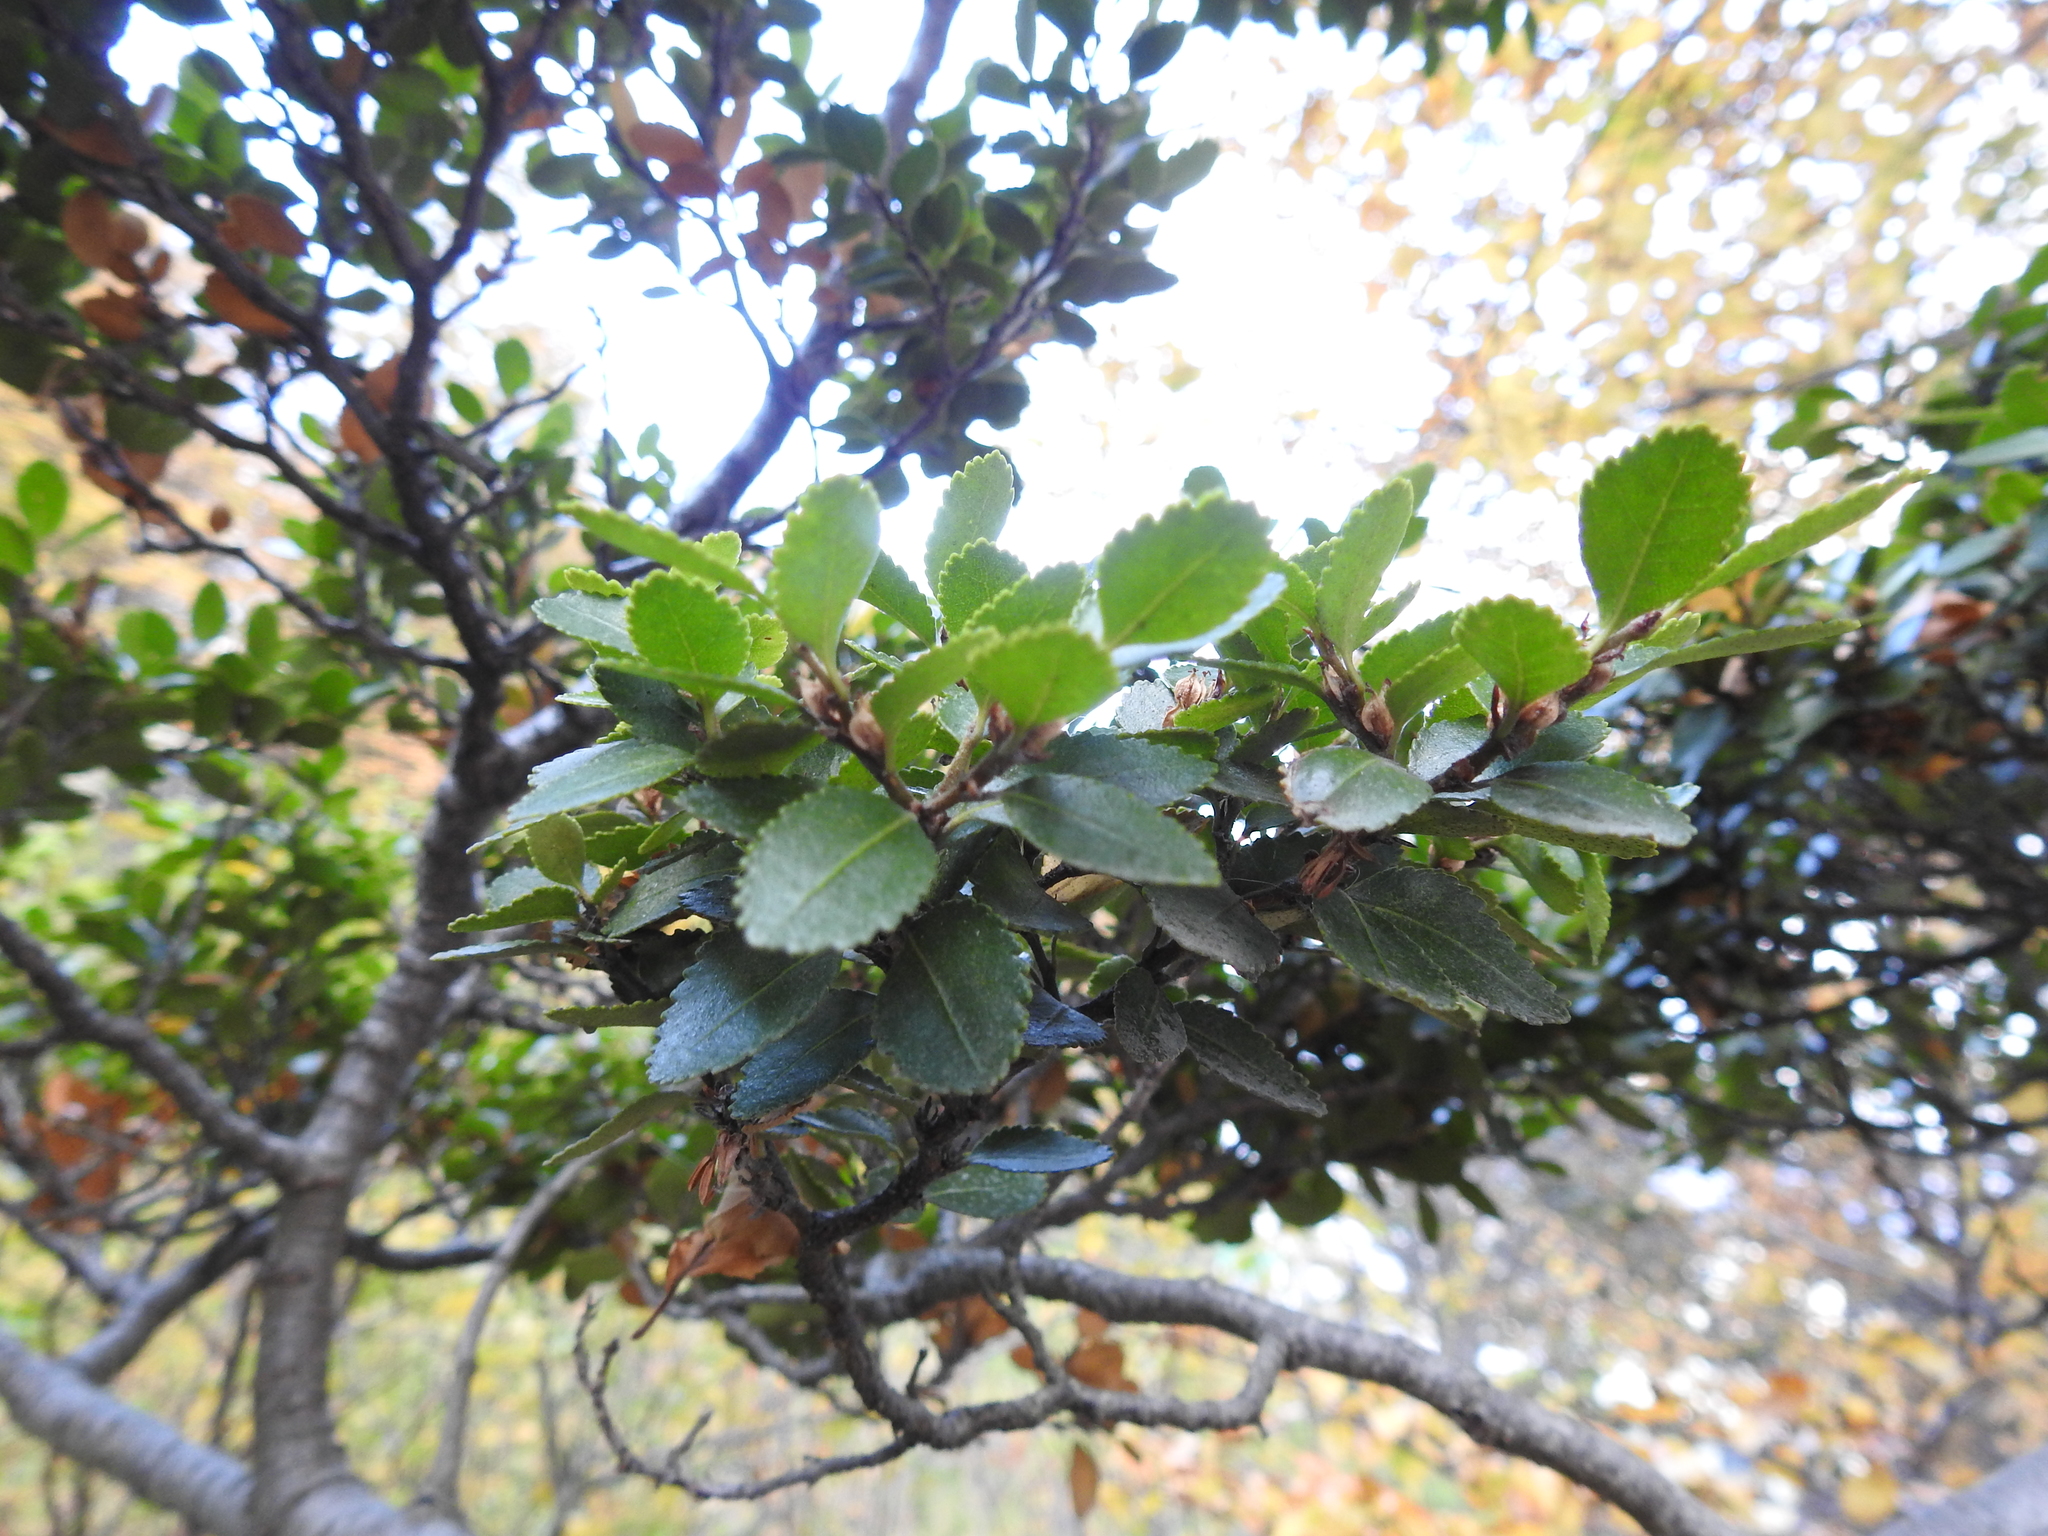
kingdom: Plantae
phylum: Tracheophyta
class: Magnoliopsida
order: Fagales
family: Nothofagaceae
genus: Nothofagus
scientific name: Nothofagus betuloides
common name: Magellan's beech
